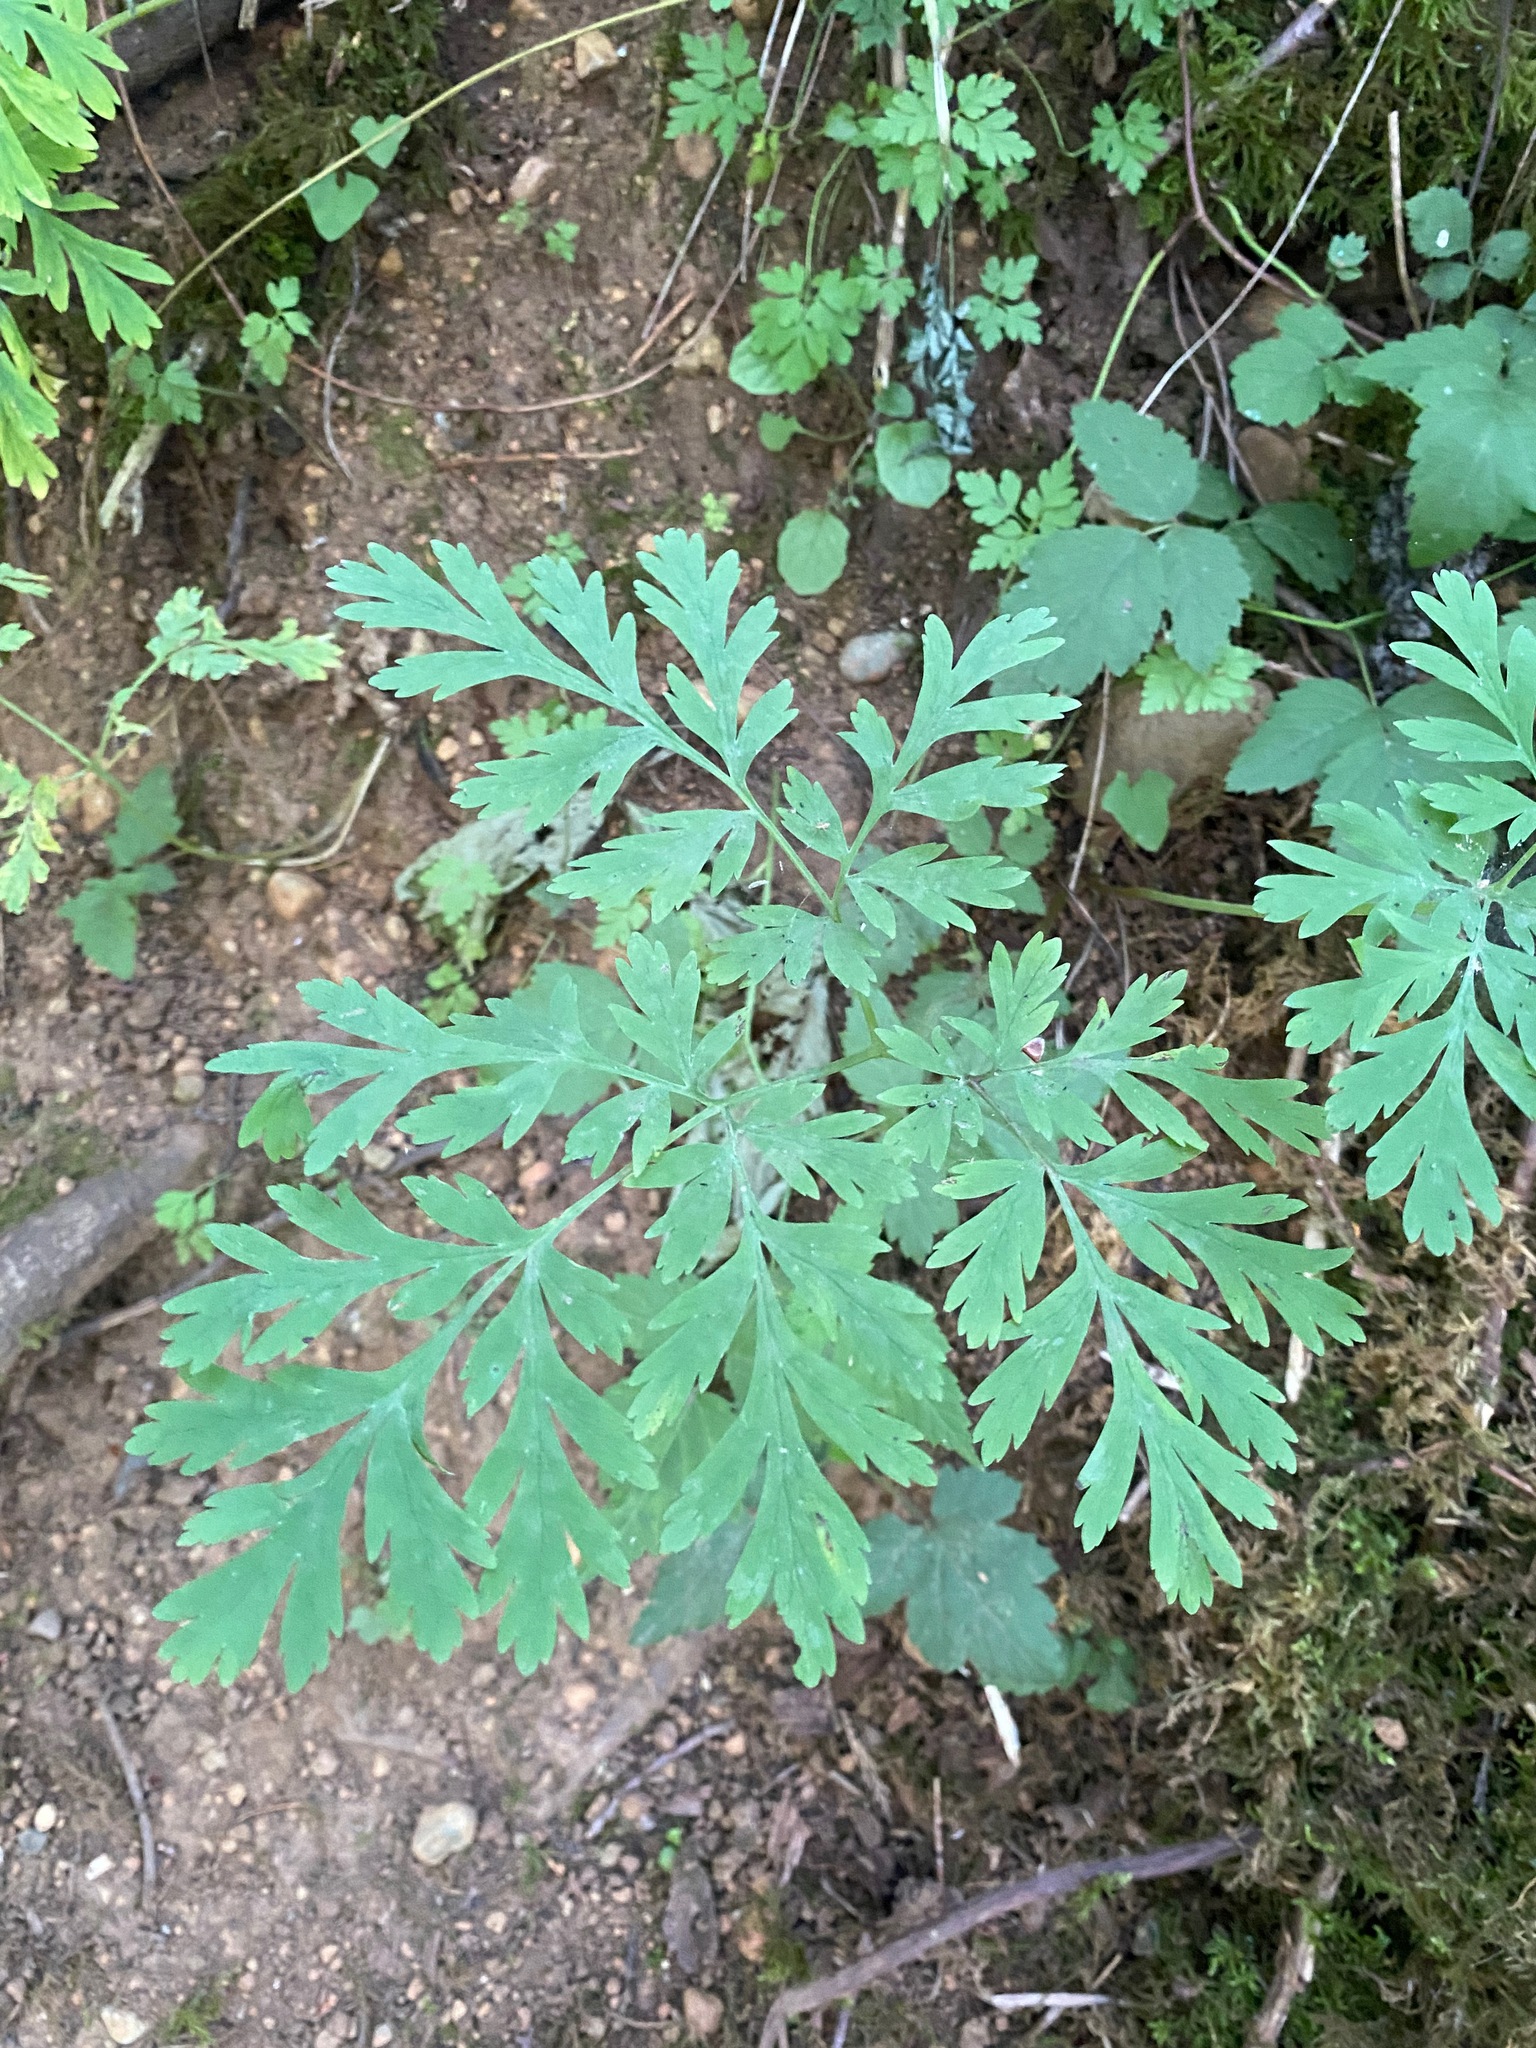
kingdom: Plantae
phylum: Tracheophyta
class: Magnoliopsida
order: Ranunculales
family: Papaveraceae
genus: Dicentra
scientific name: Dicentra formosa
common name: Bleeding-heart
